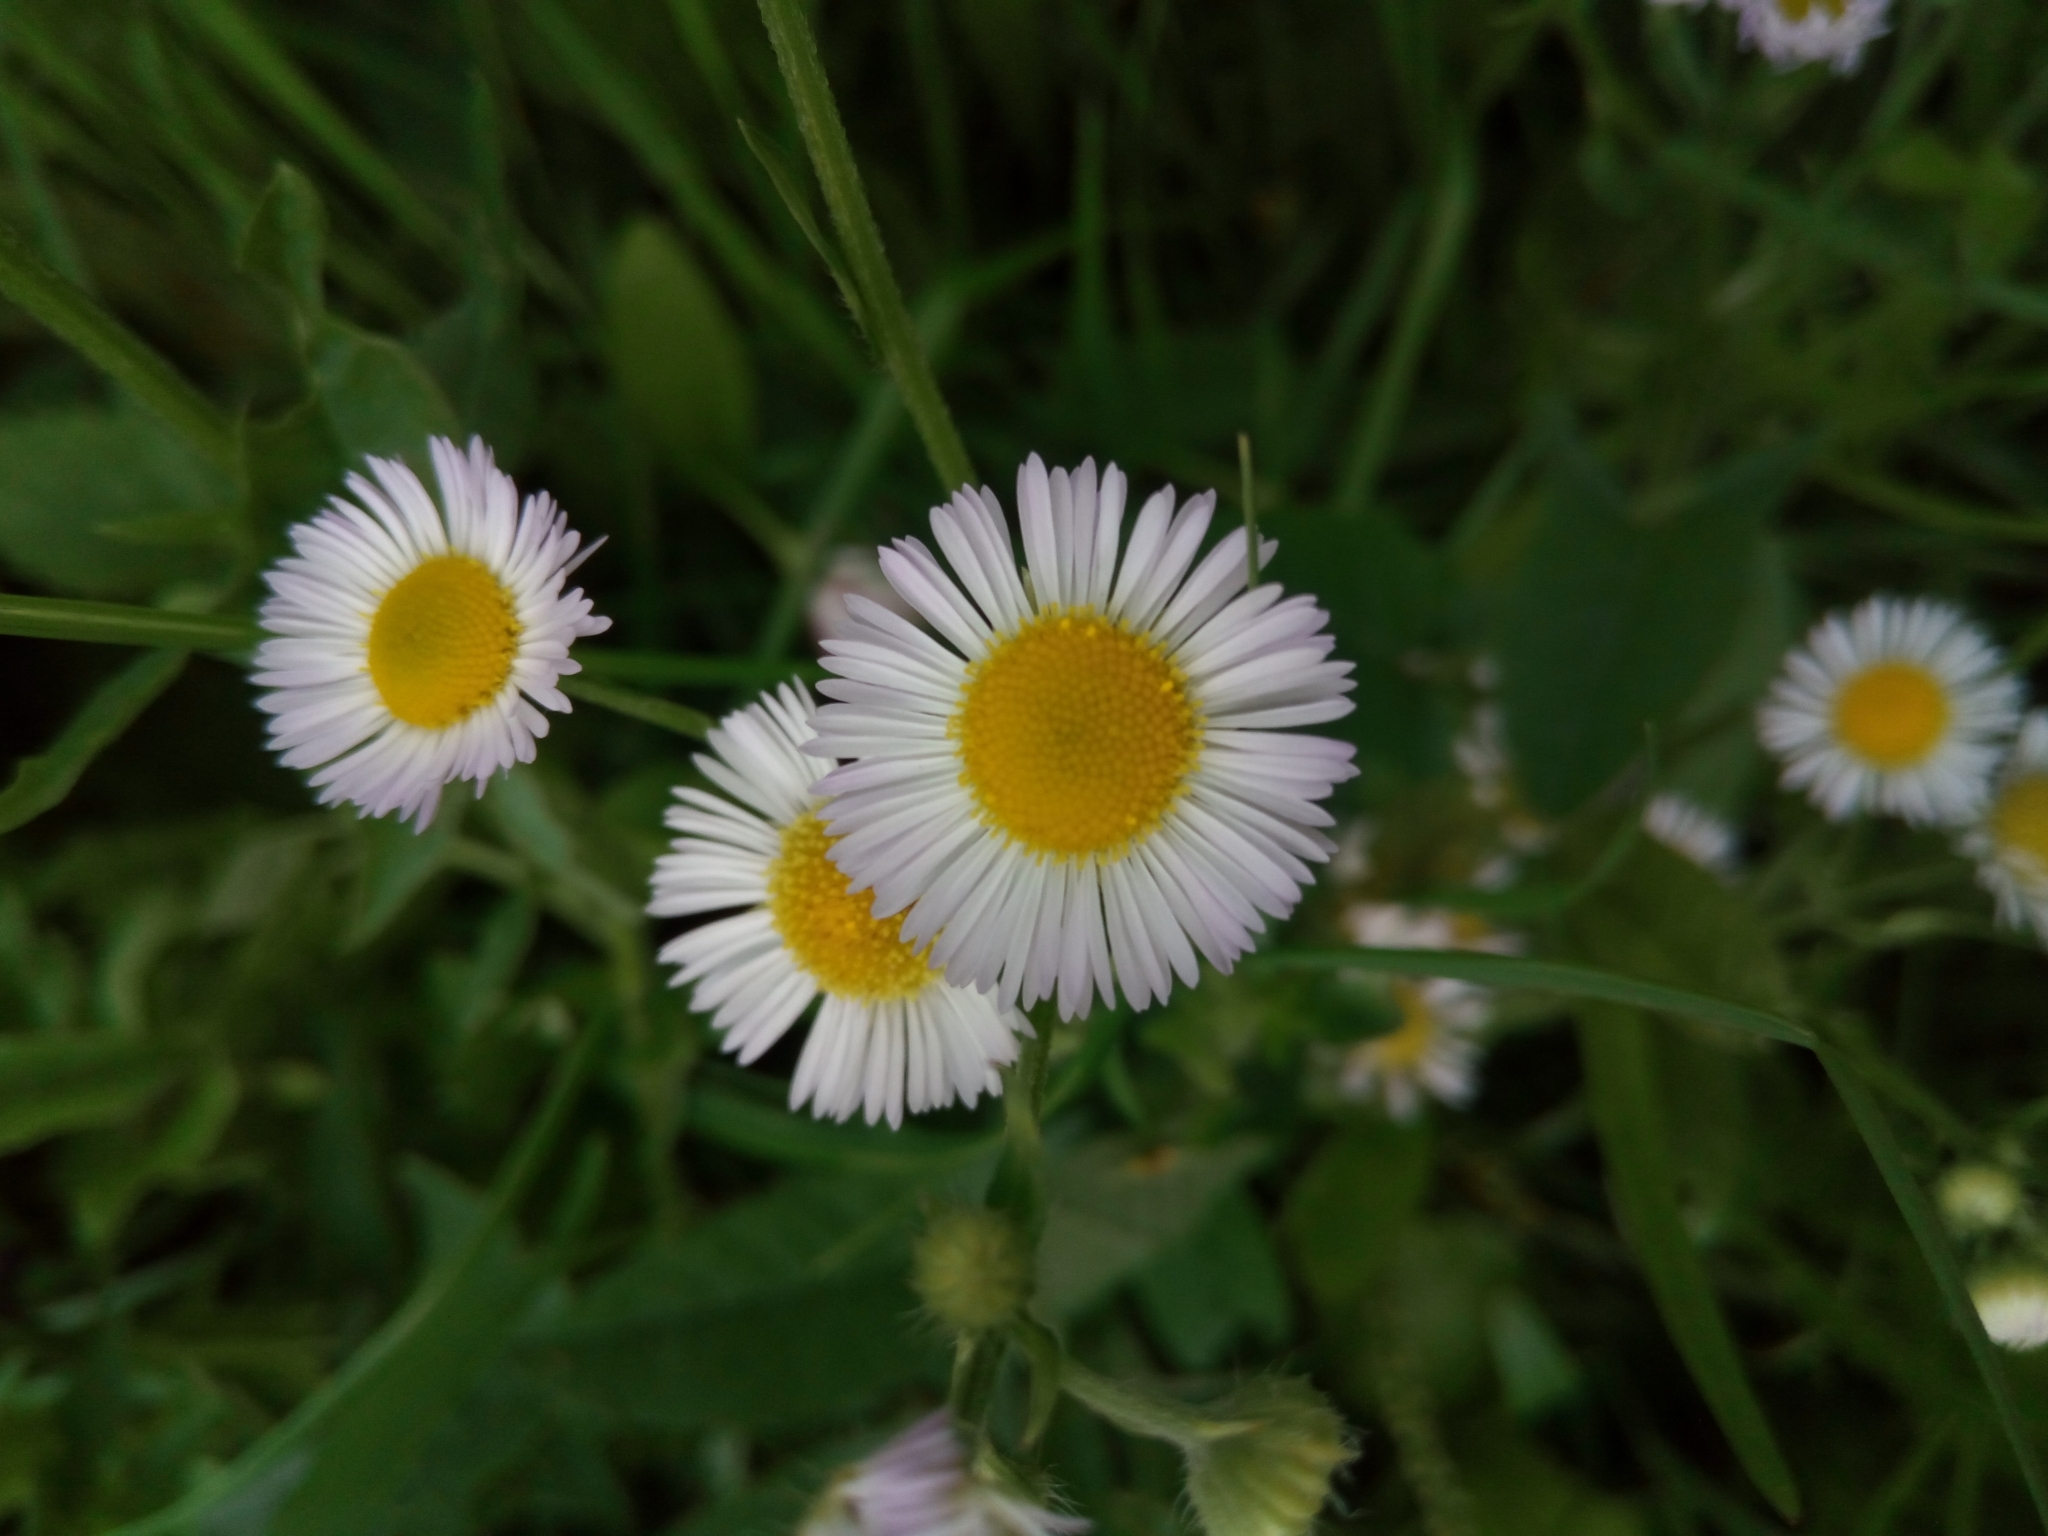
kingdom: Plantae
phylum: Tracheophyta
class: Magnoliopsida
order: Asterales
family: Asteraceae
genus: Erigeron
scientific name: Erigeron annuus
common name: Tall fleabane
